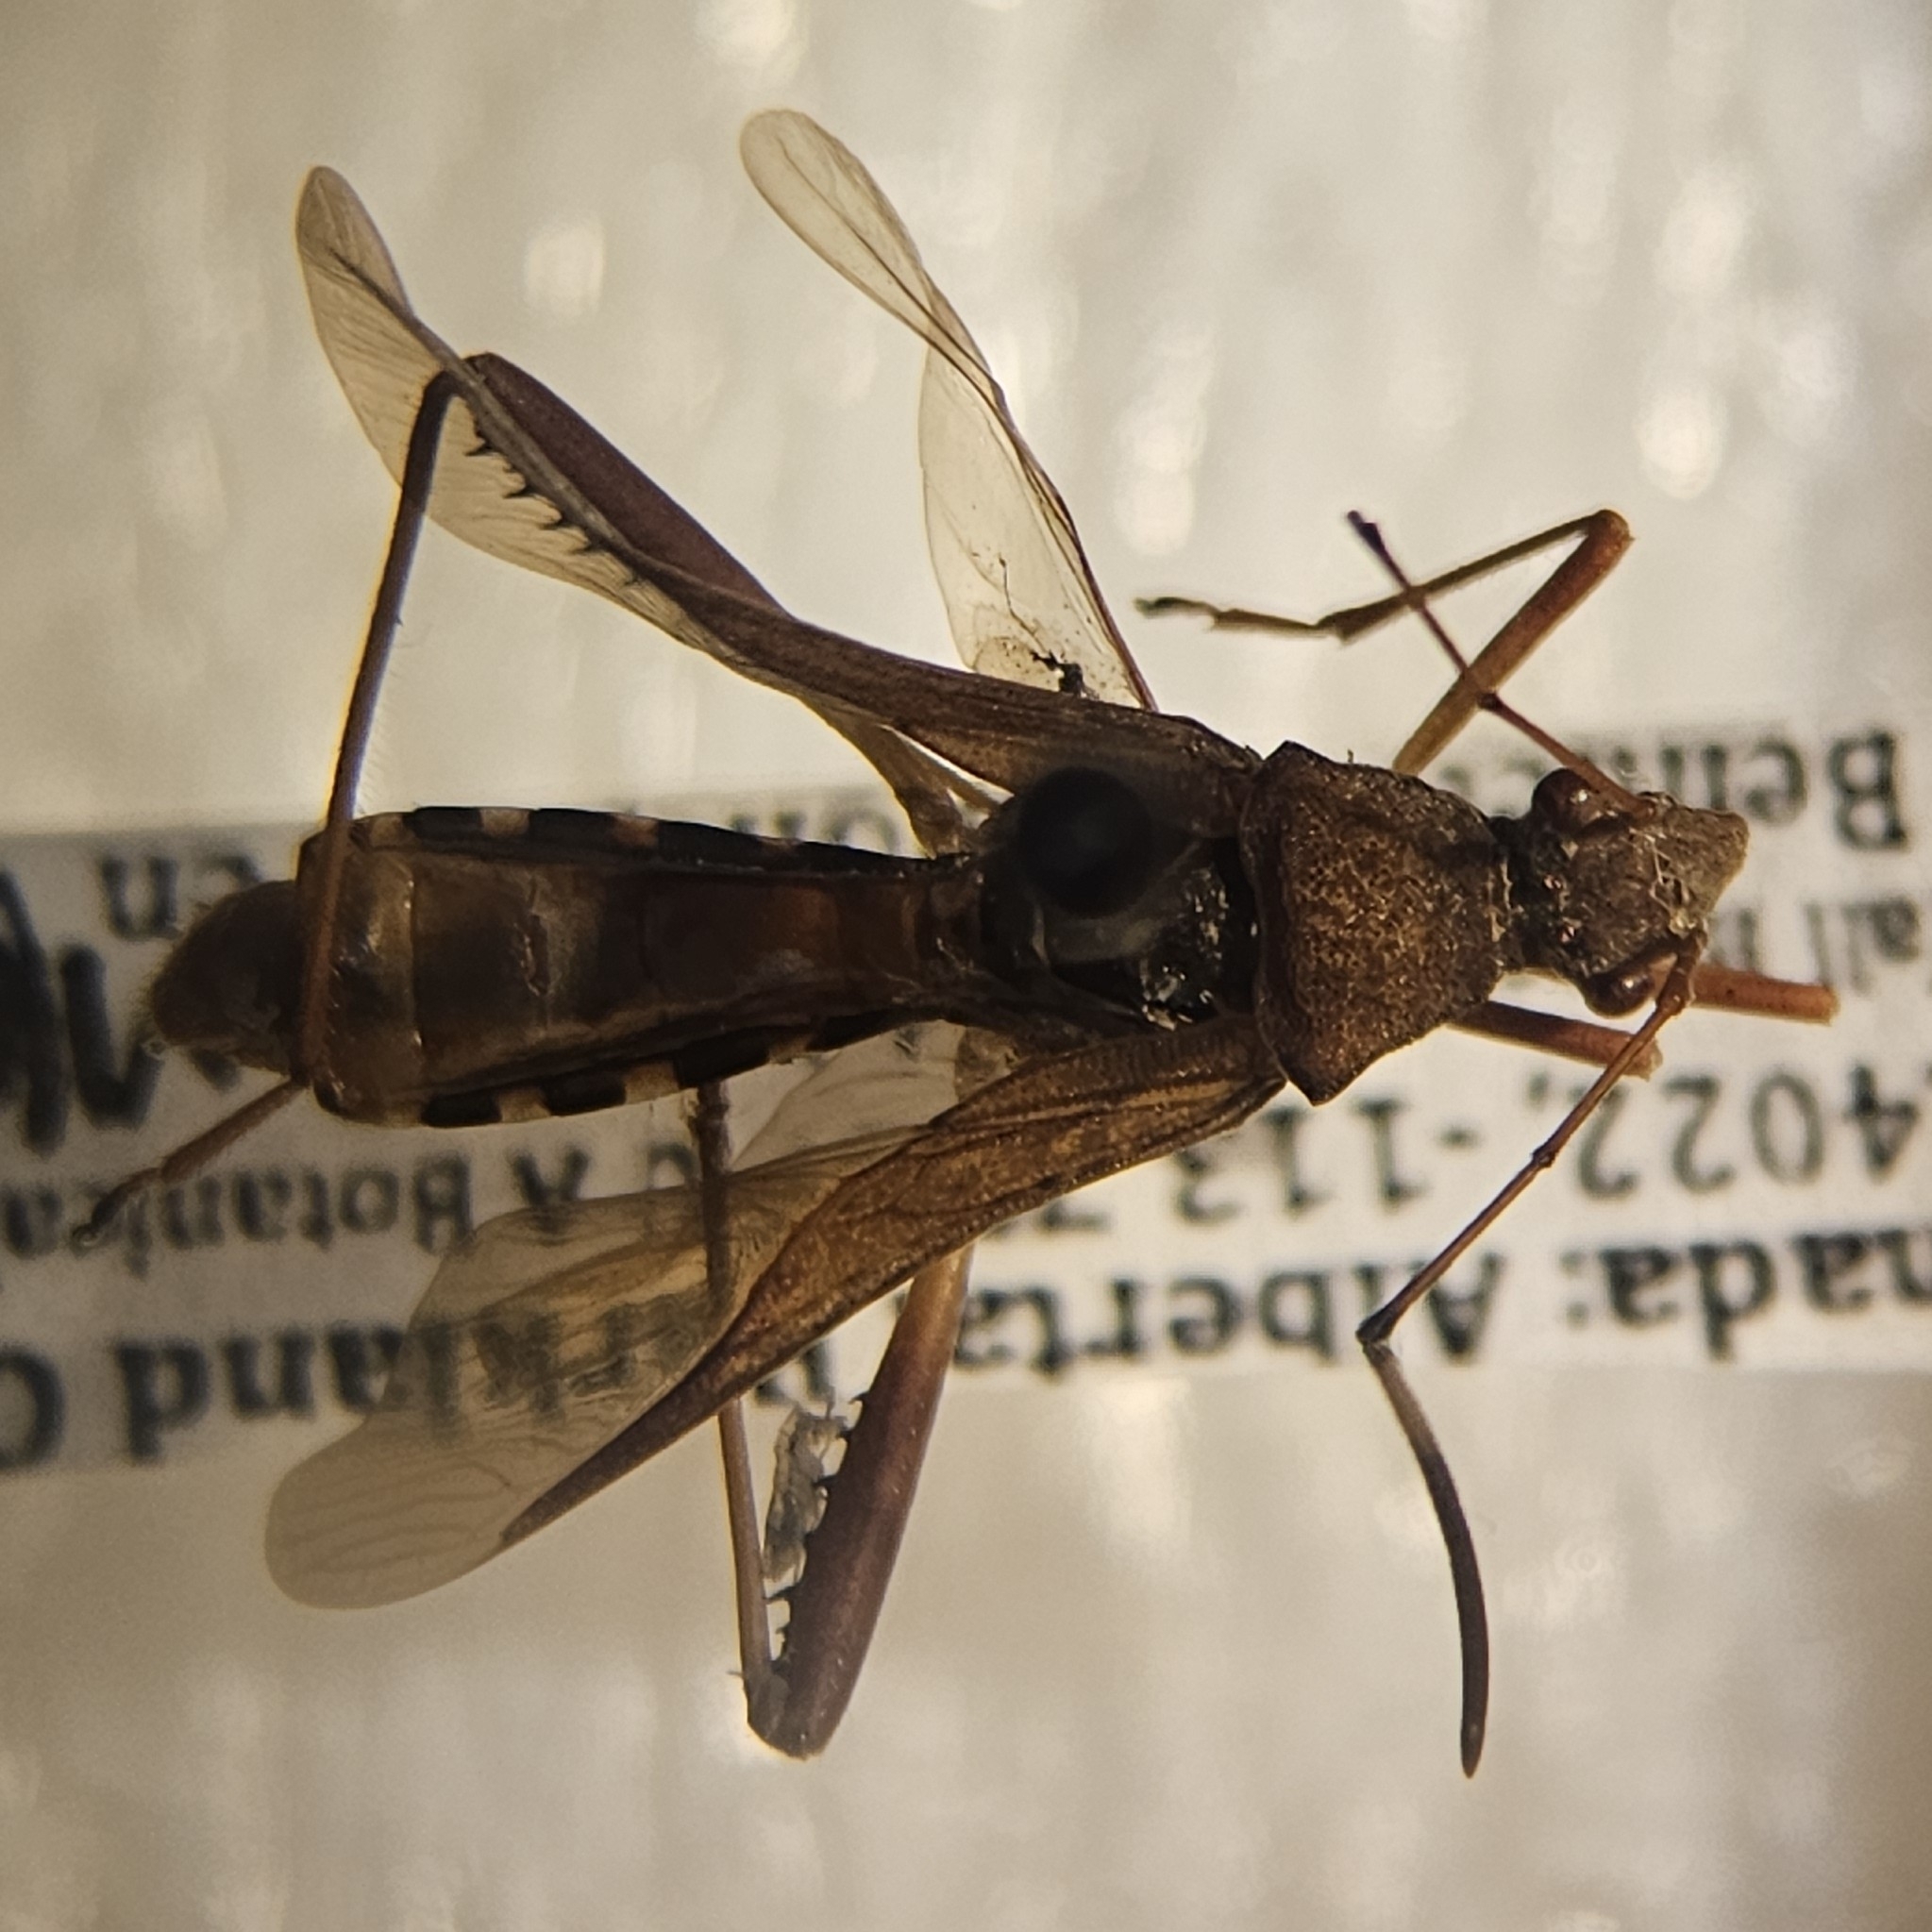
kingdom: Animalia
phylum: Arthropoda
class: Insecta
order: Hemiptera
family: Alydidae
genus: Megalotomus
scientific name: Megalotomus quinquespinosus
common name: Lupine bug
